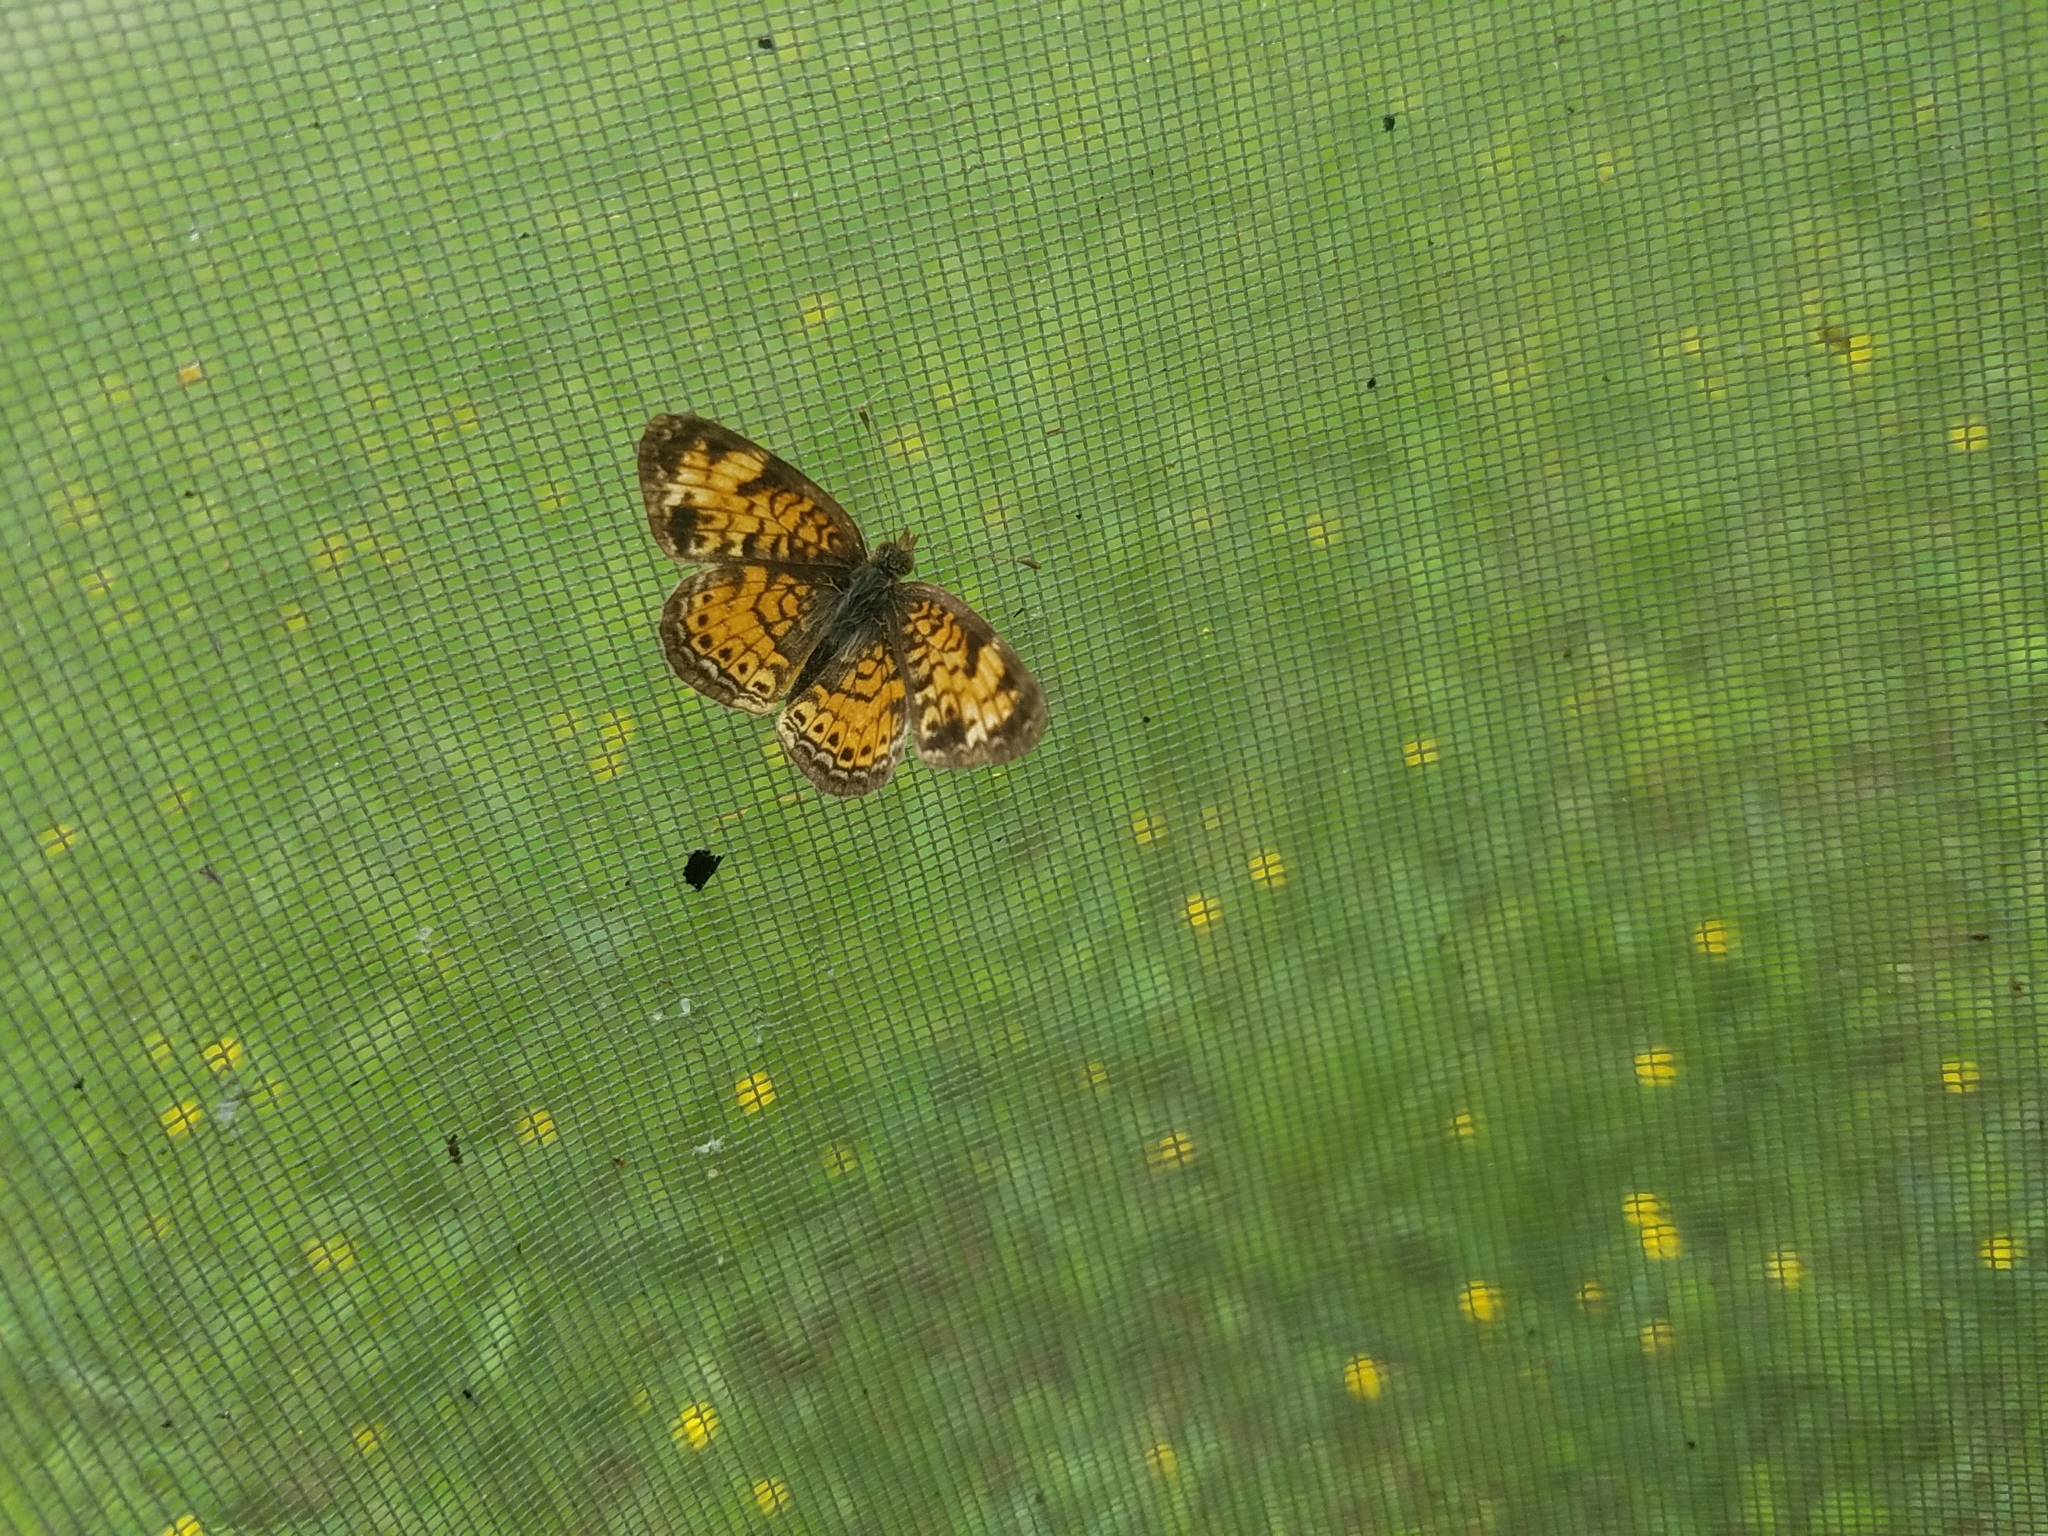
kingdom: Animalia
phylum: Arthropoda
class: Insecta
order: Lepidoptera
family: Nymphalidae
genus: Phyciodes
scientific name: Phyciodes tharos
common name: Pearl crescent
